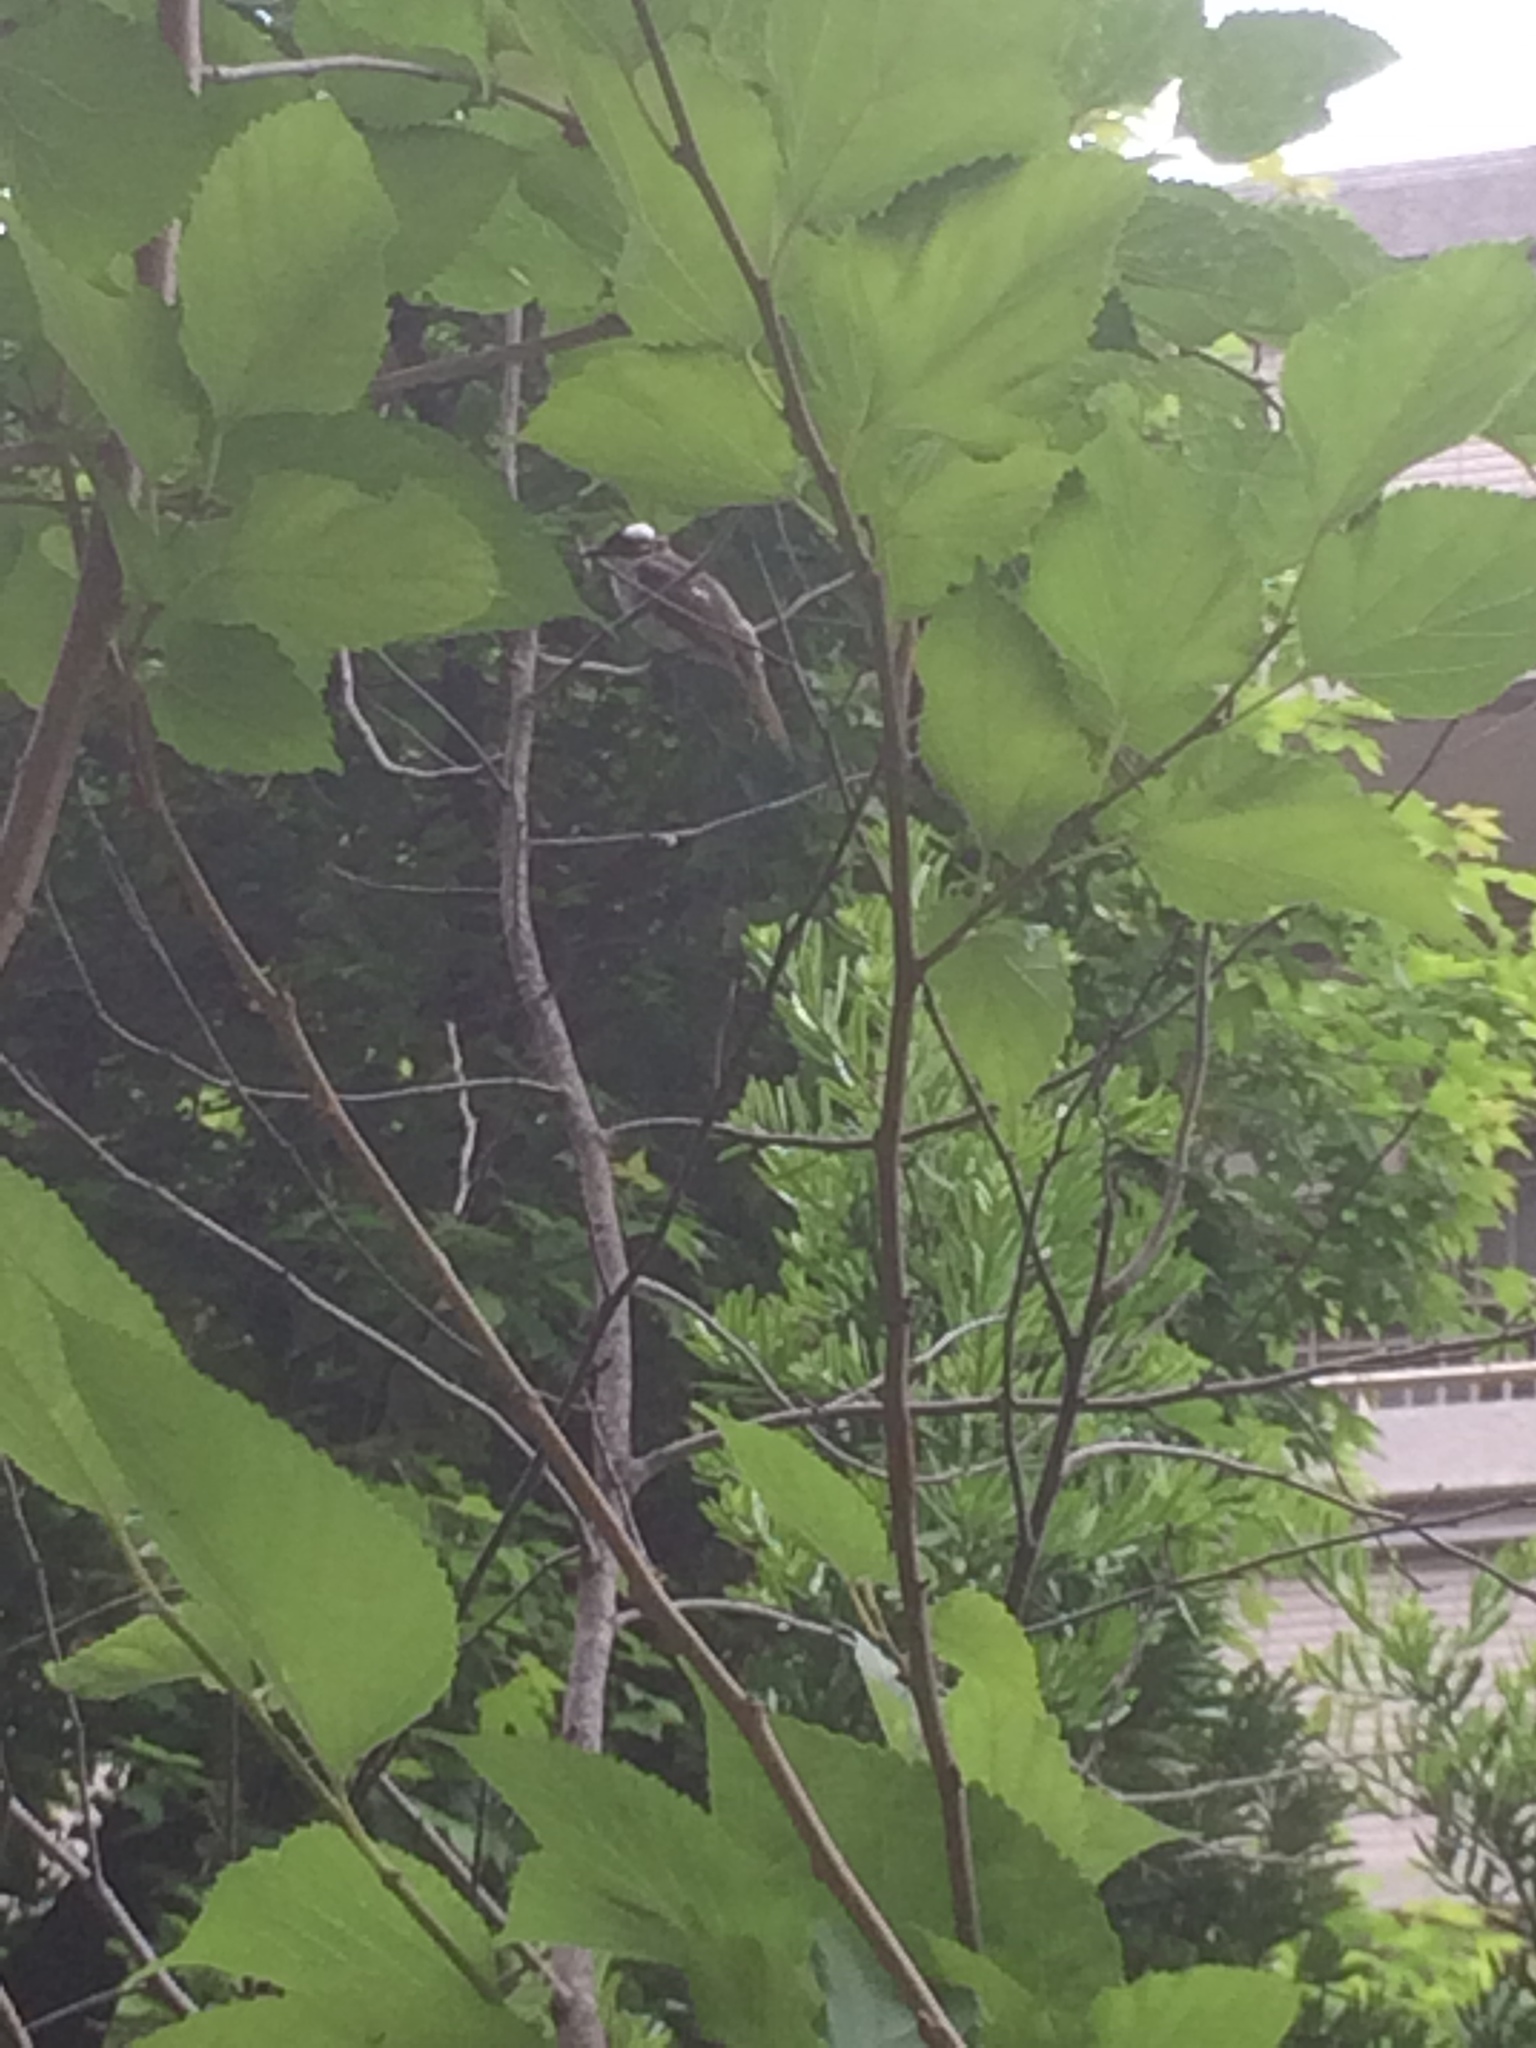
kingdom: Animalia
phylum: Chordata
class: Aves
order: Passeriformes
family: Pycnonotidae
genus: Pycnonotus
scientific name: Pycnonotus sinensis
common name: Light-vented bulbul
